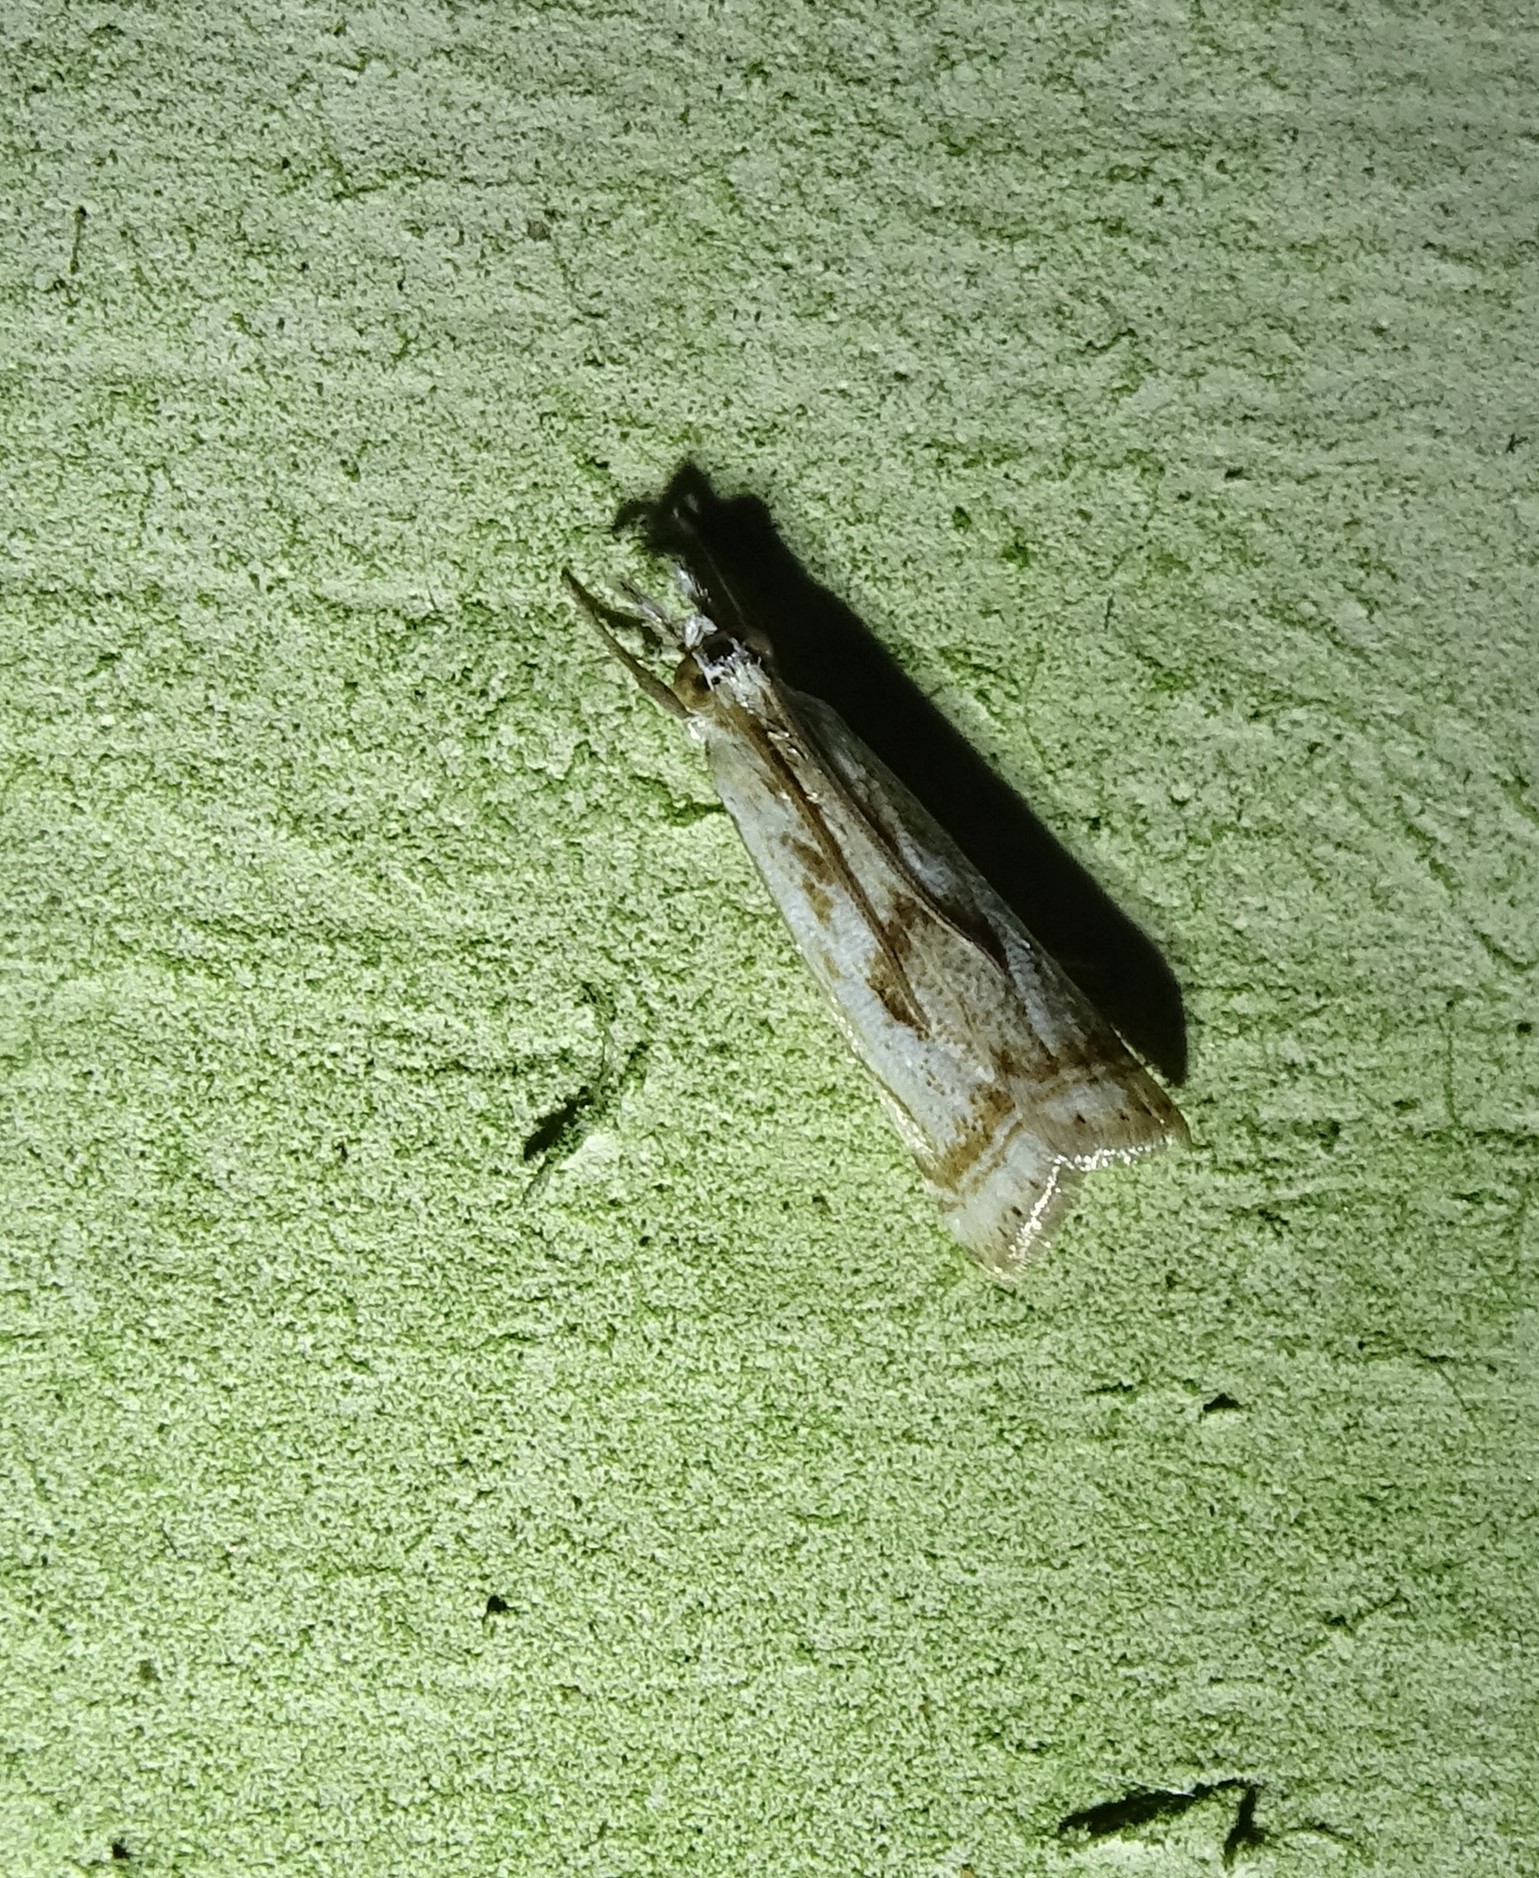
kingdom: Animalia
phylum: Arthropoda
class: Insecta
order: Lepidoptera
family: Crambidae
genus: Microcrambus
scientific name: Microcrambus elegans
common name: Elegant grass-veneer
